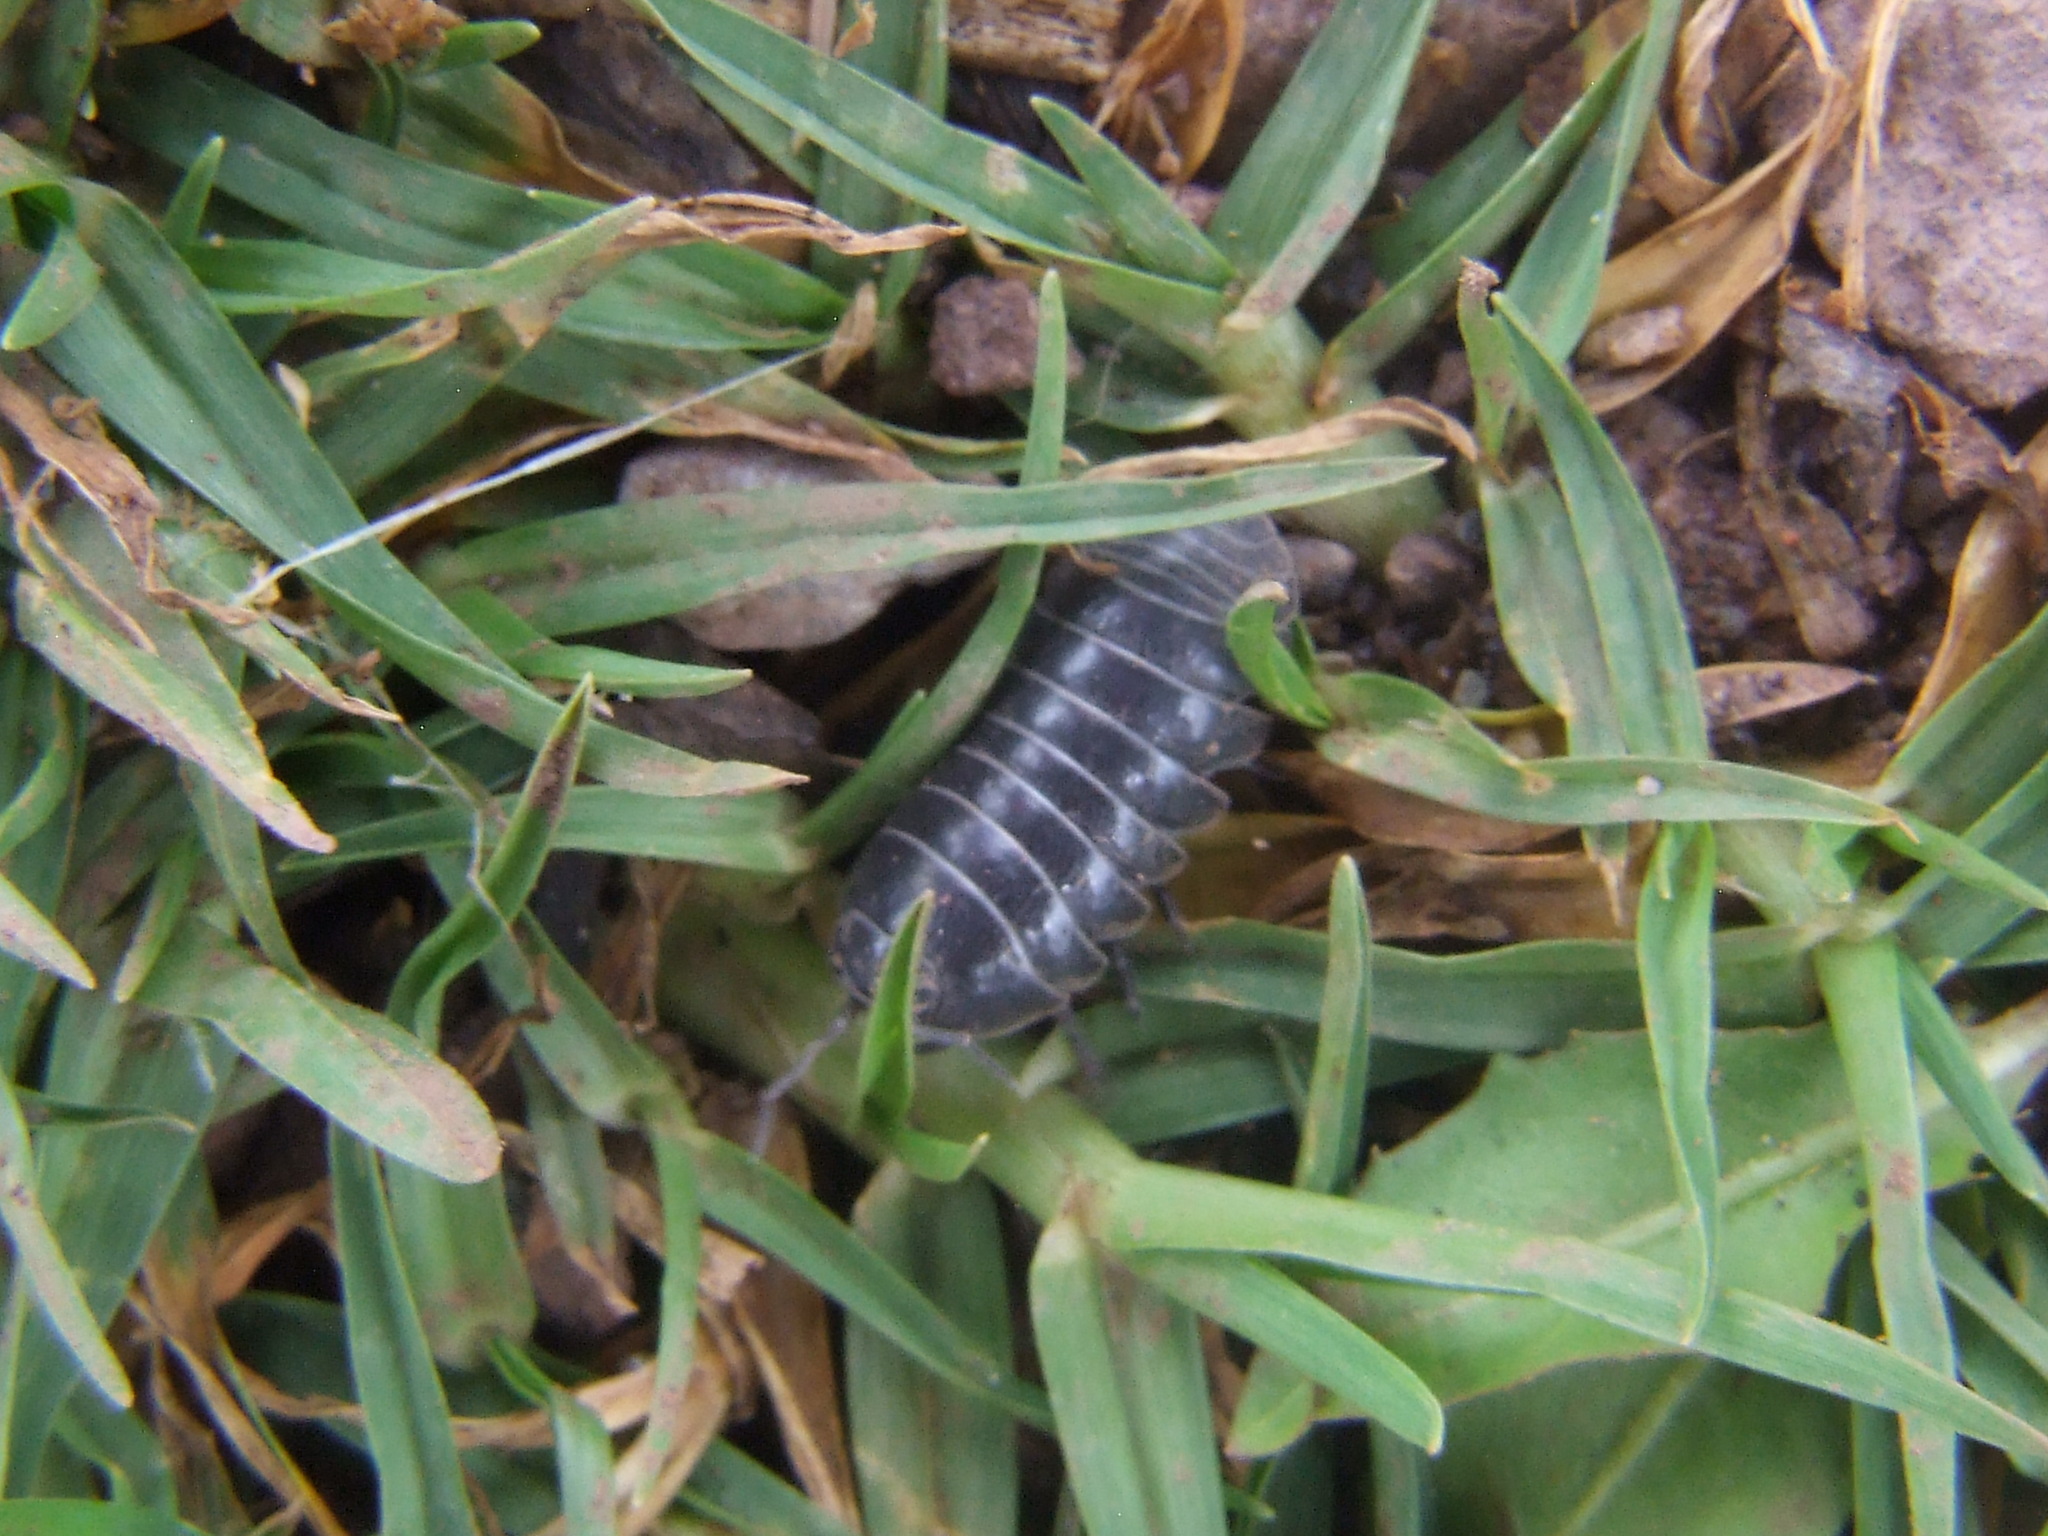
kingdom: Animalia
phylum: Arthropoda
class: Malacostraca
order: Isopoda
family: Armadillidiidae
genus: Armadillidium
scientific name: Armadillidium vulgare
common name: Common pill woodlouse
